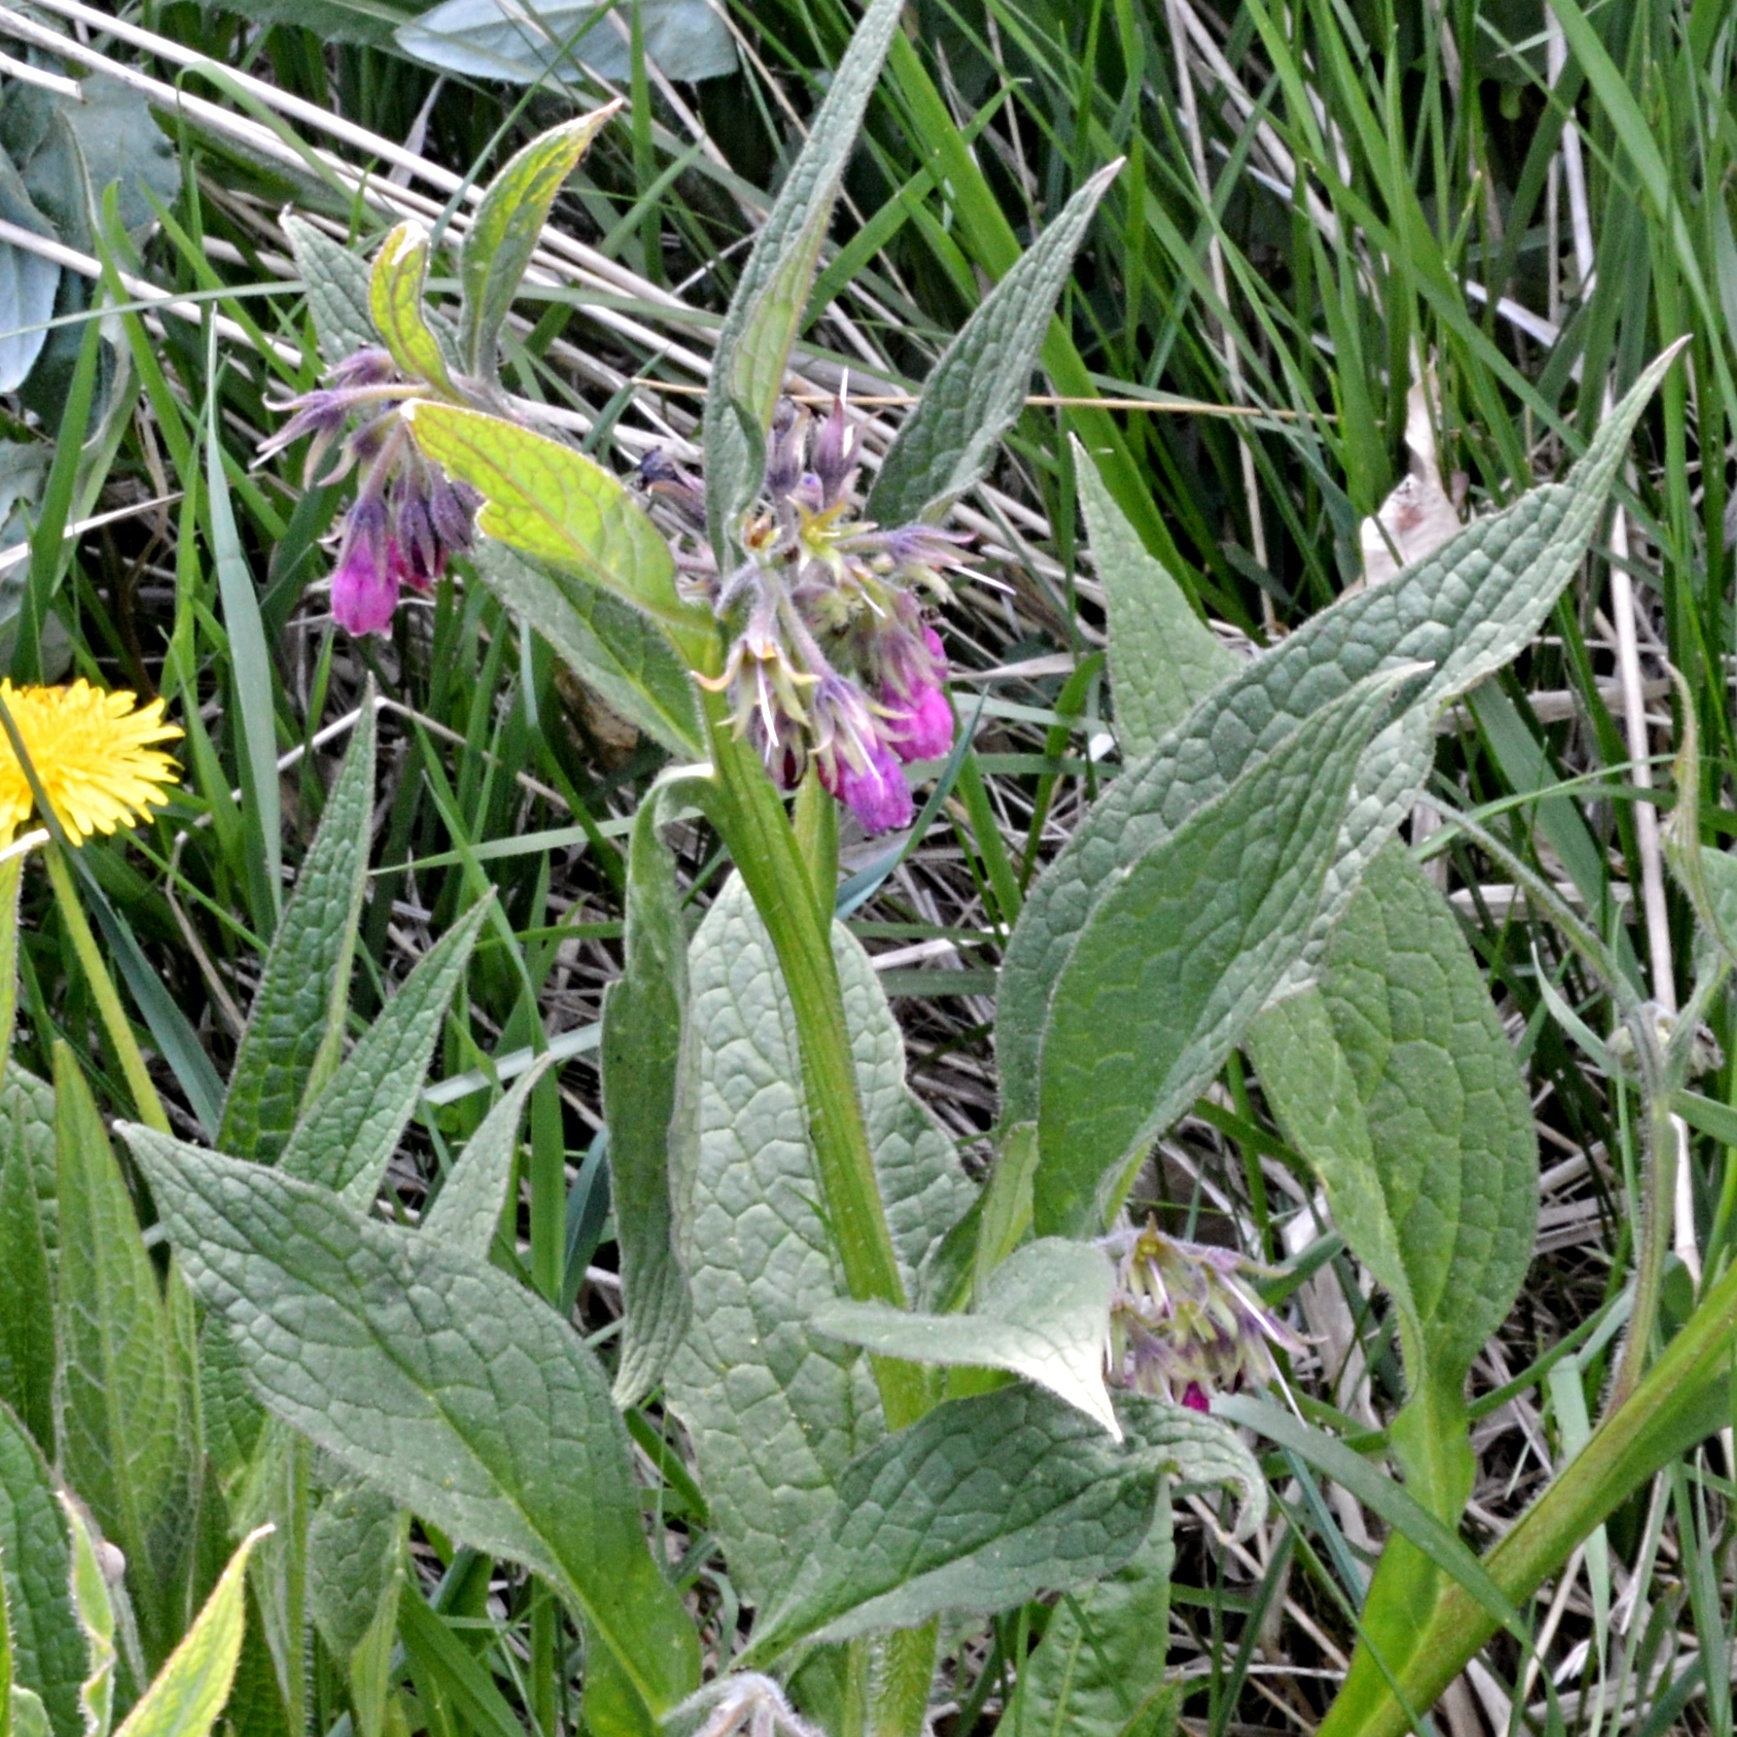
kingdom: Plantae
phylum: Tracheophyta
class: Magnoliopsida
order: Boraginales
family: Boraginaceae
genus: Symphytum
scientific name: Symphytum officinale
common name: Common comfrey
